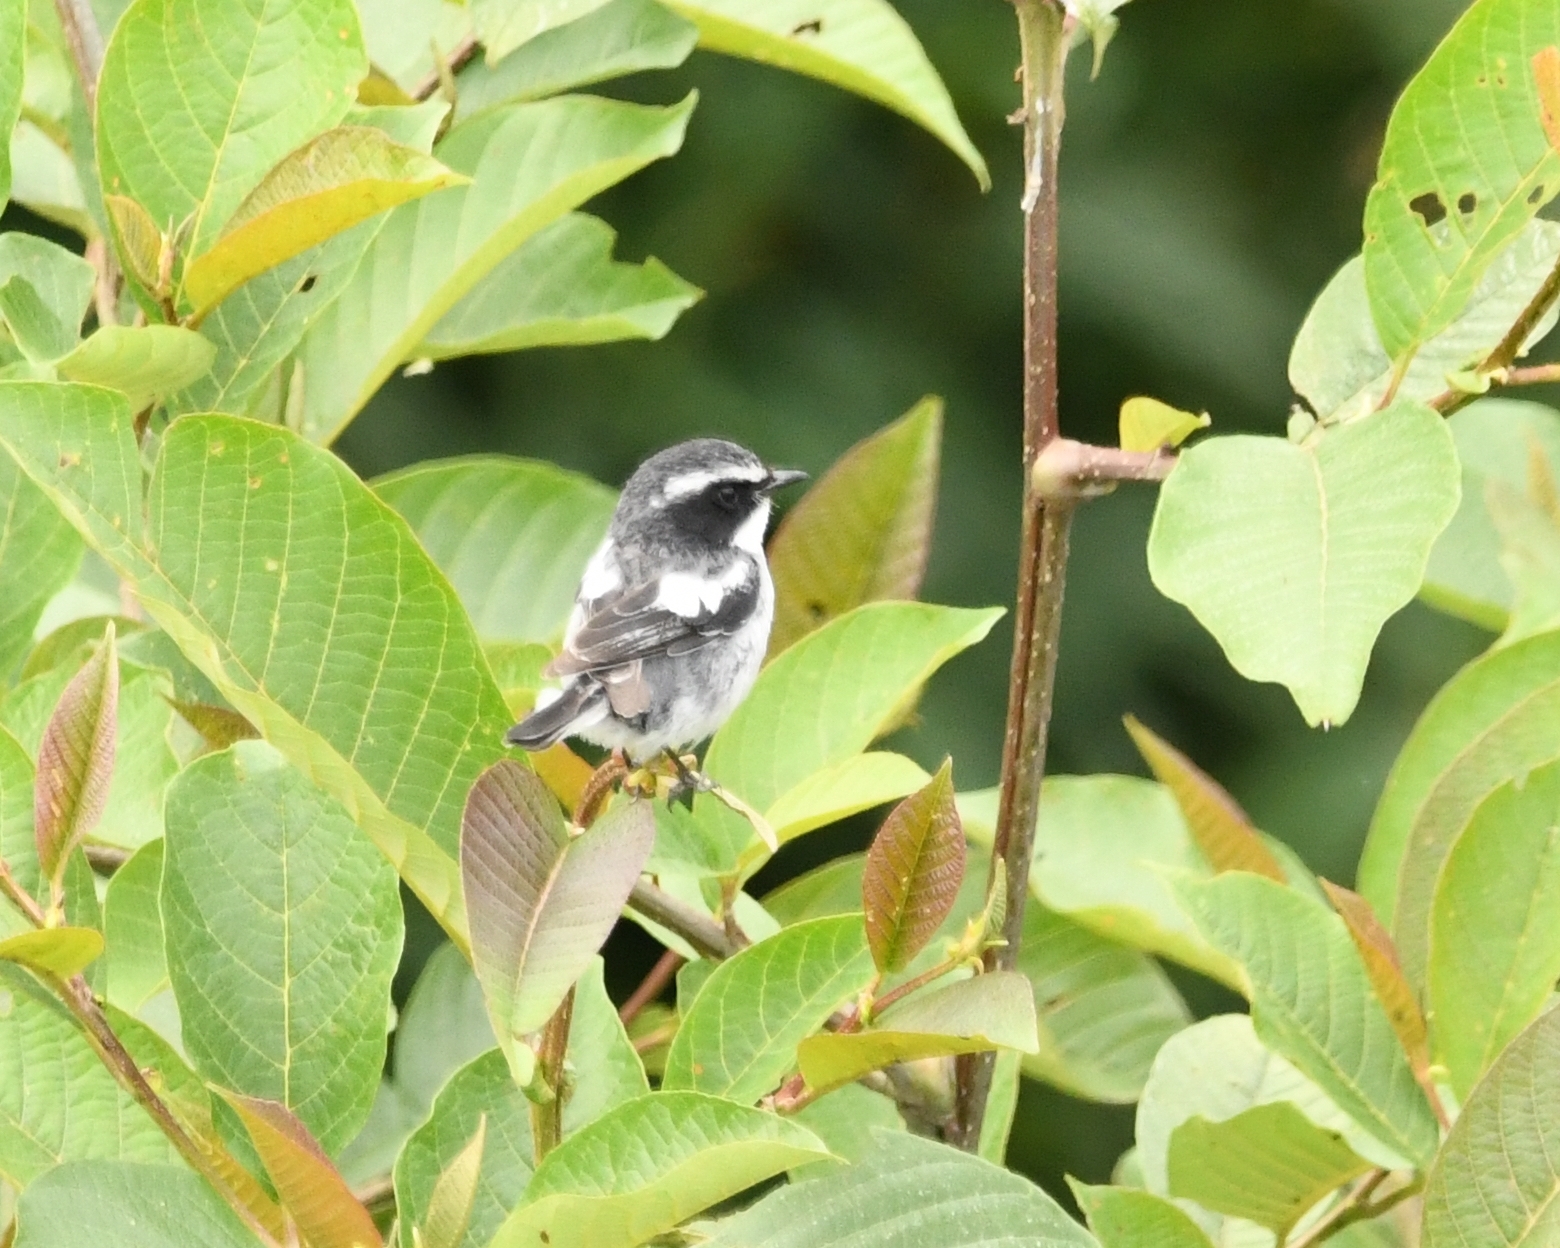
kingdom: Animalia
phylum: Chordata
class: Aves
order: Passeriformes
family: Muscicapidae
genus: Saxicola
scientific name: Saxicola ferreus
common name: Grey bush chat
